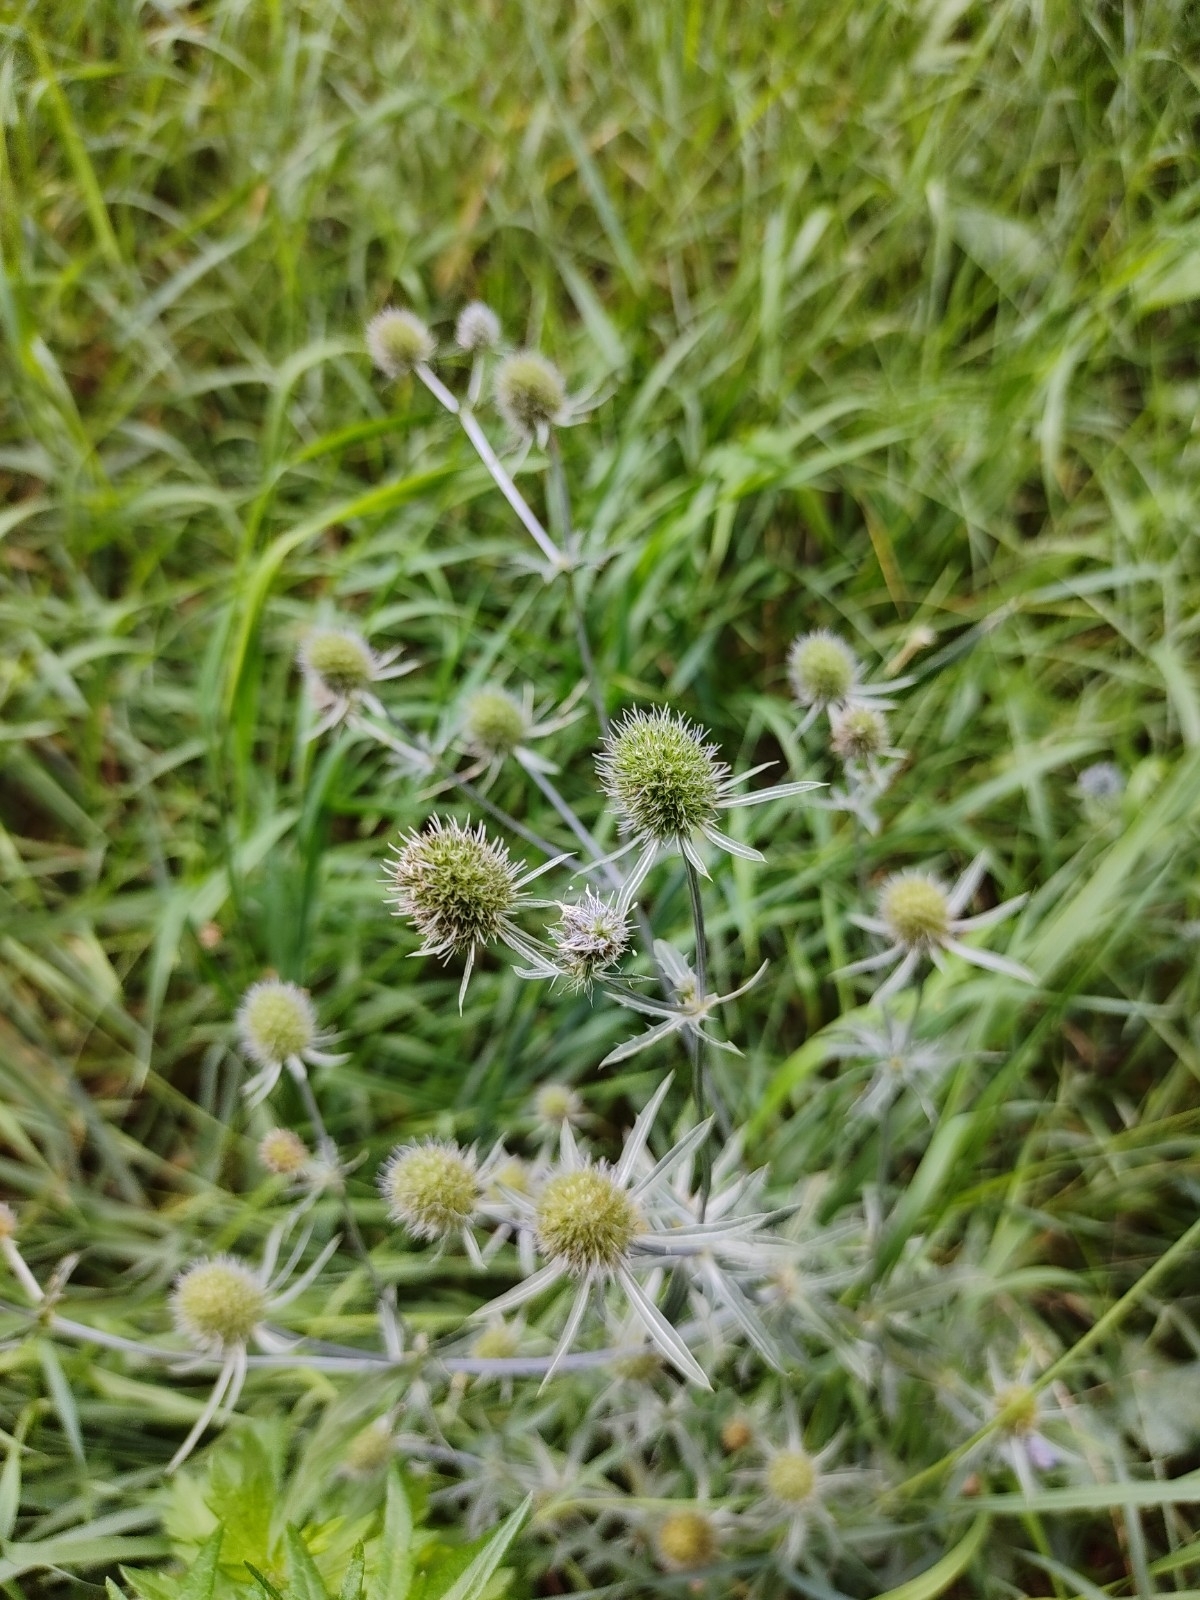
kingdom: Plantae
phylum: Tracheophyta
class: Magnoliopsida
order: Apiales
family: Apiaceae
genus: Eryngium
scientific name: Eryngium planum
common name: Blue eryngo
